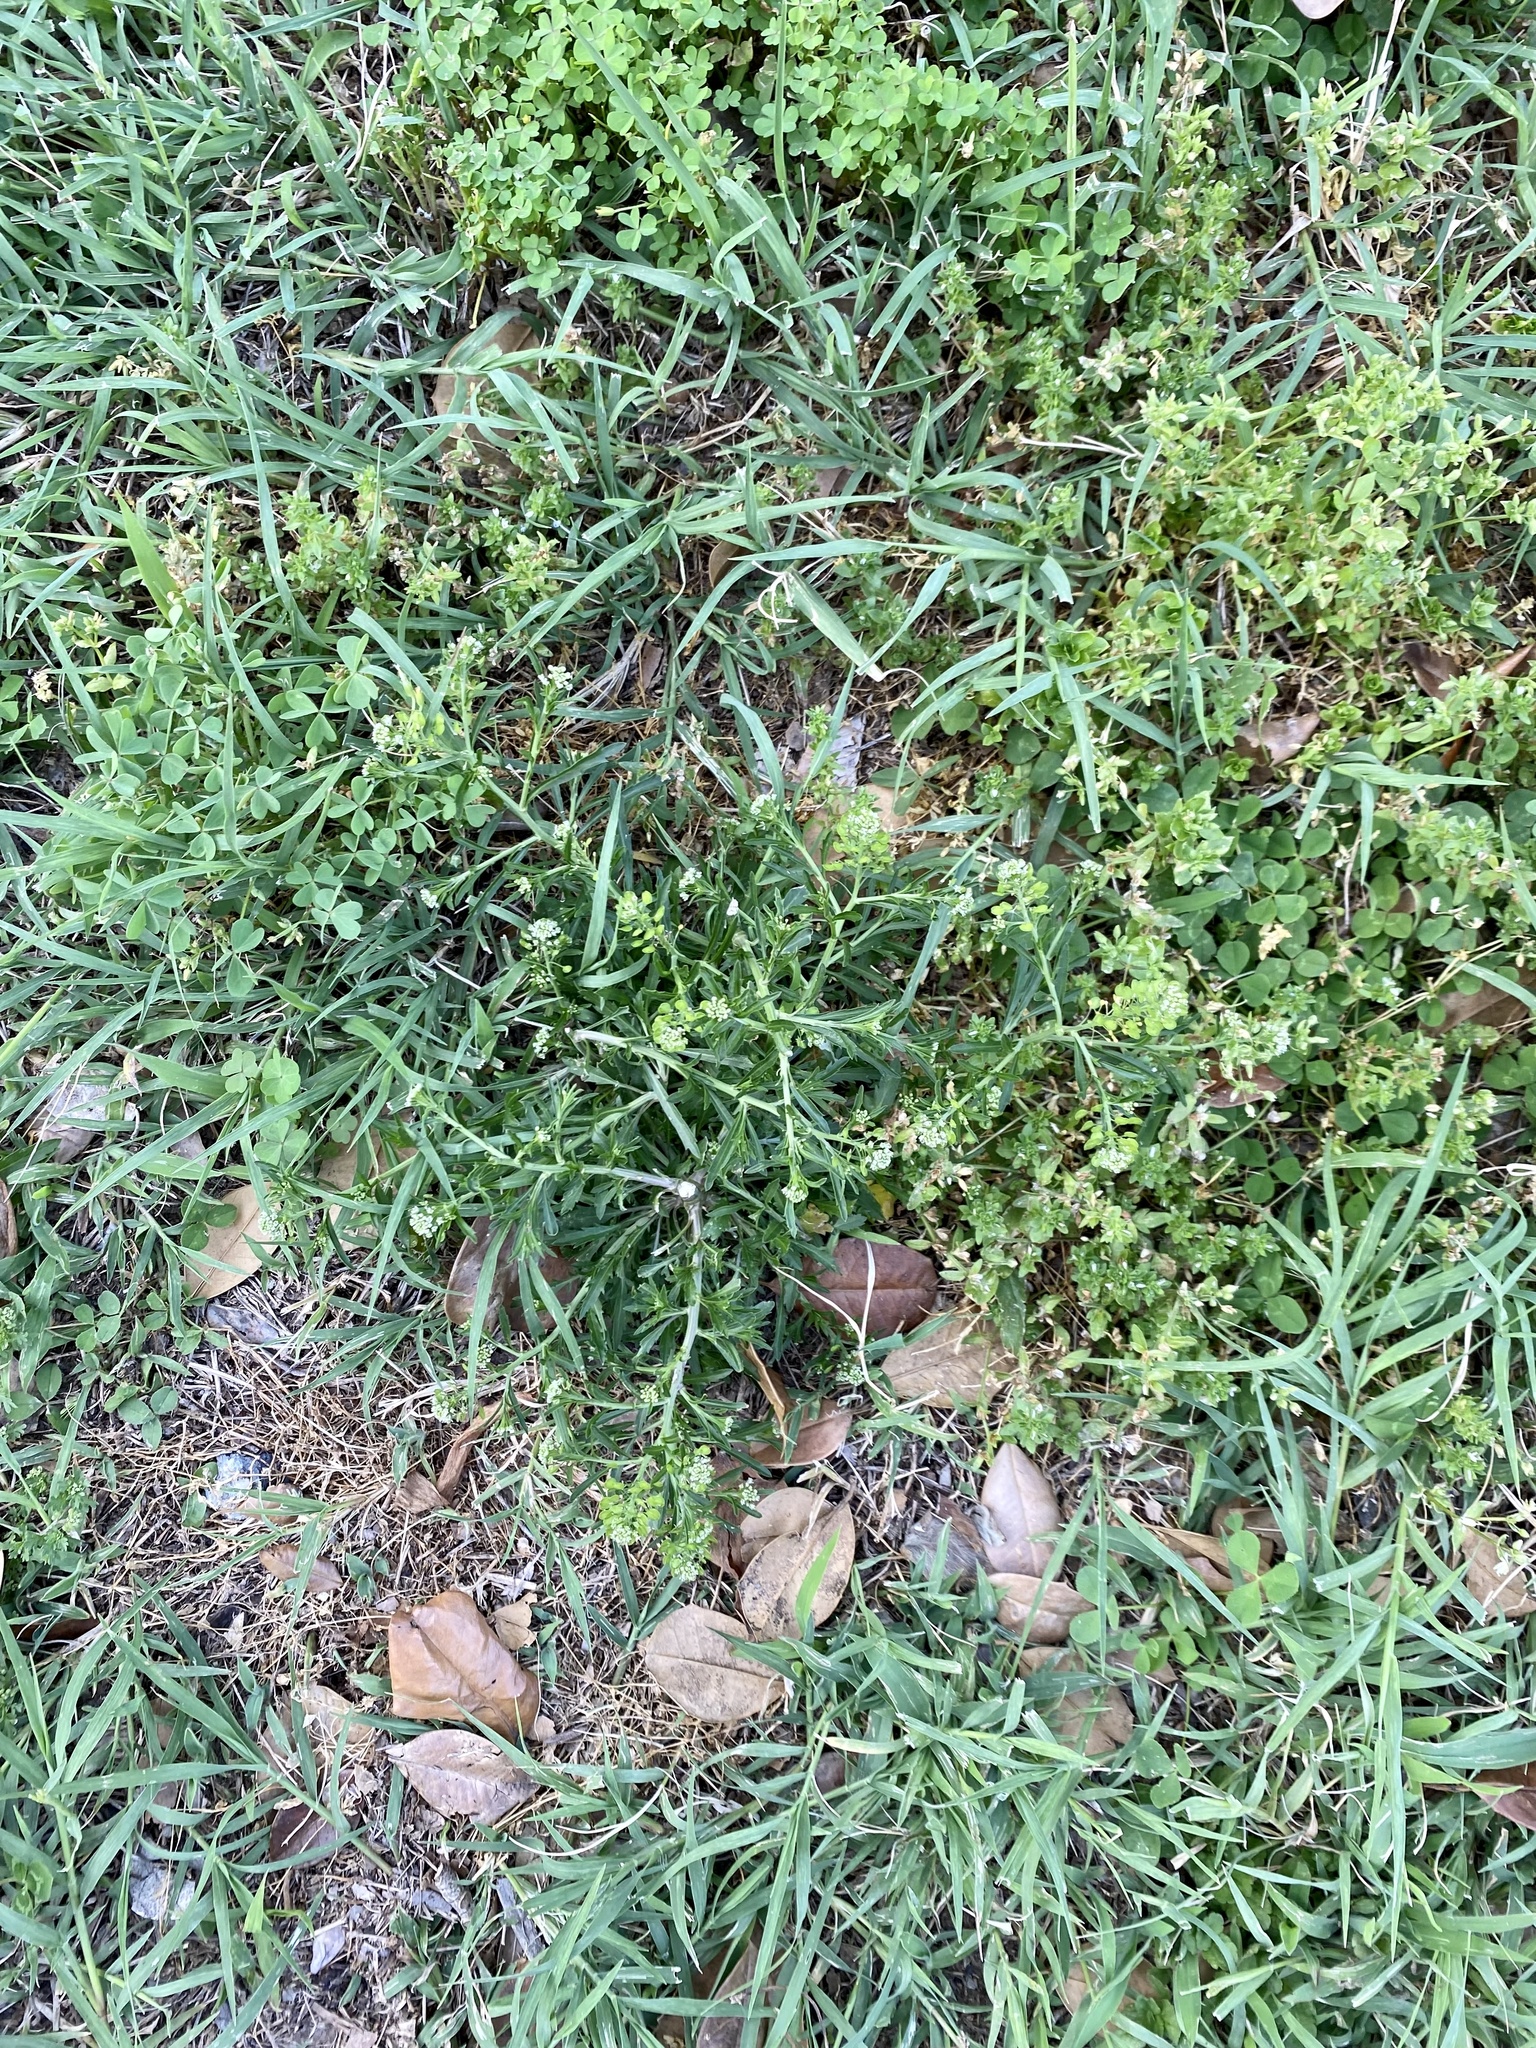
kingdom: Plantae
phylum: Tracheophyta
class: Magnoliopsida
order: Brassicales
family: Brassicaceae
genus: Lepidium
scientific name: Lepidium virginicum
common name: Least pepperwort
